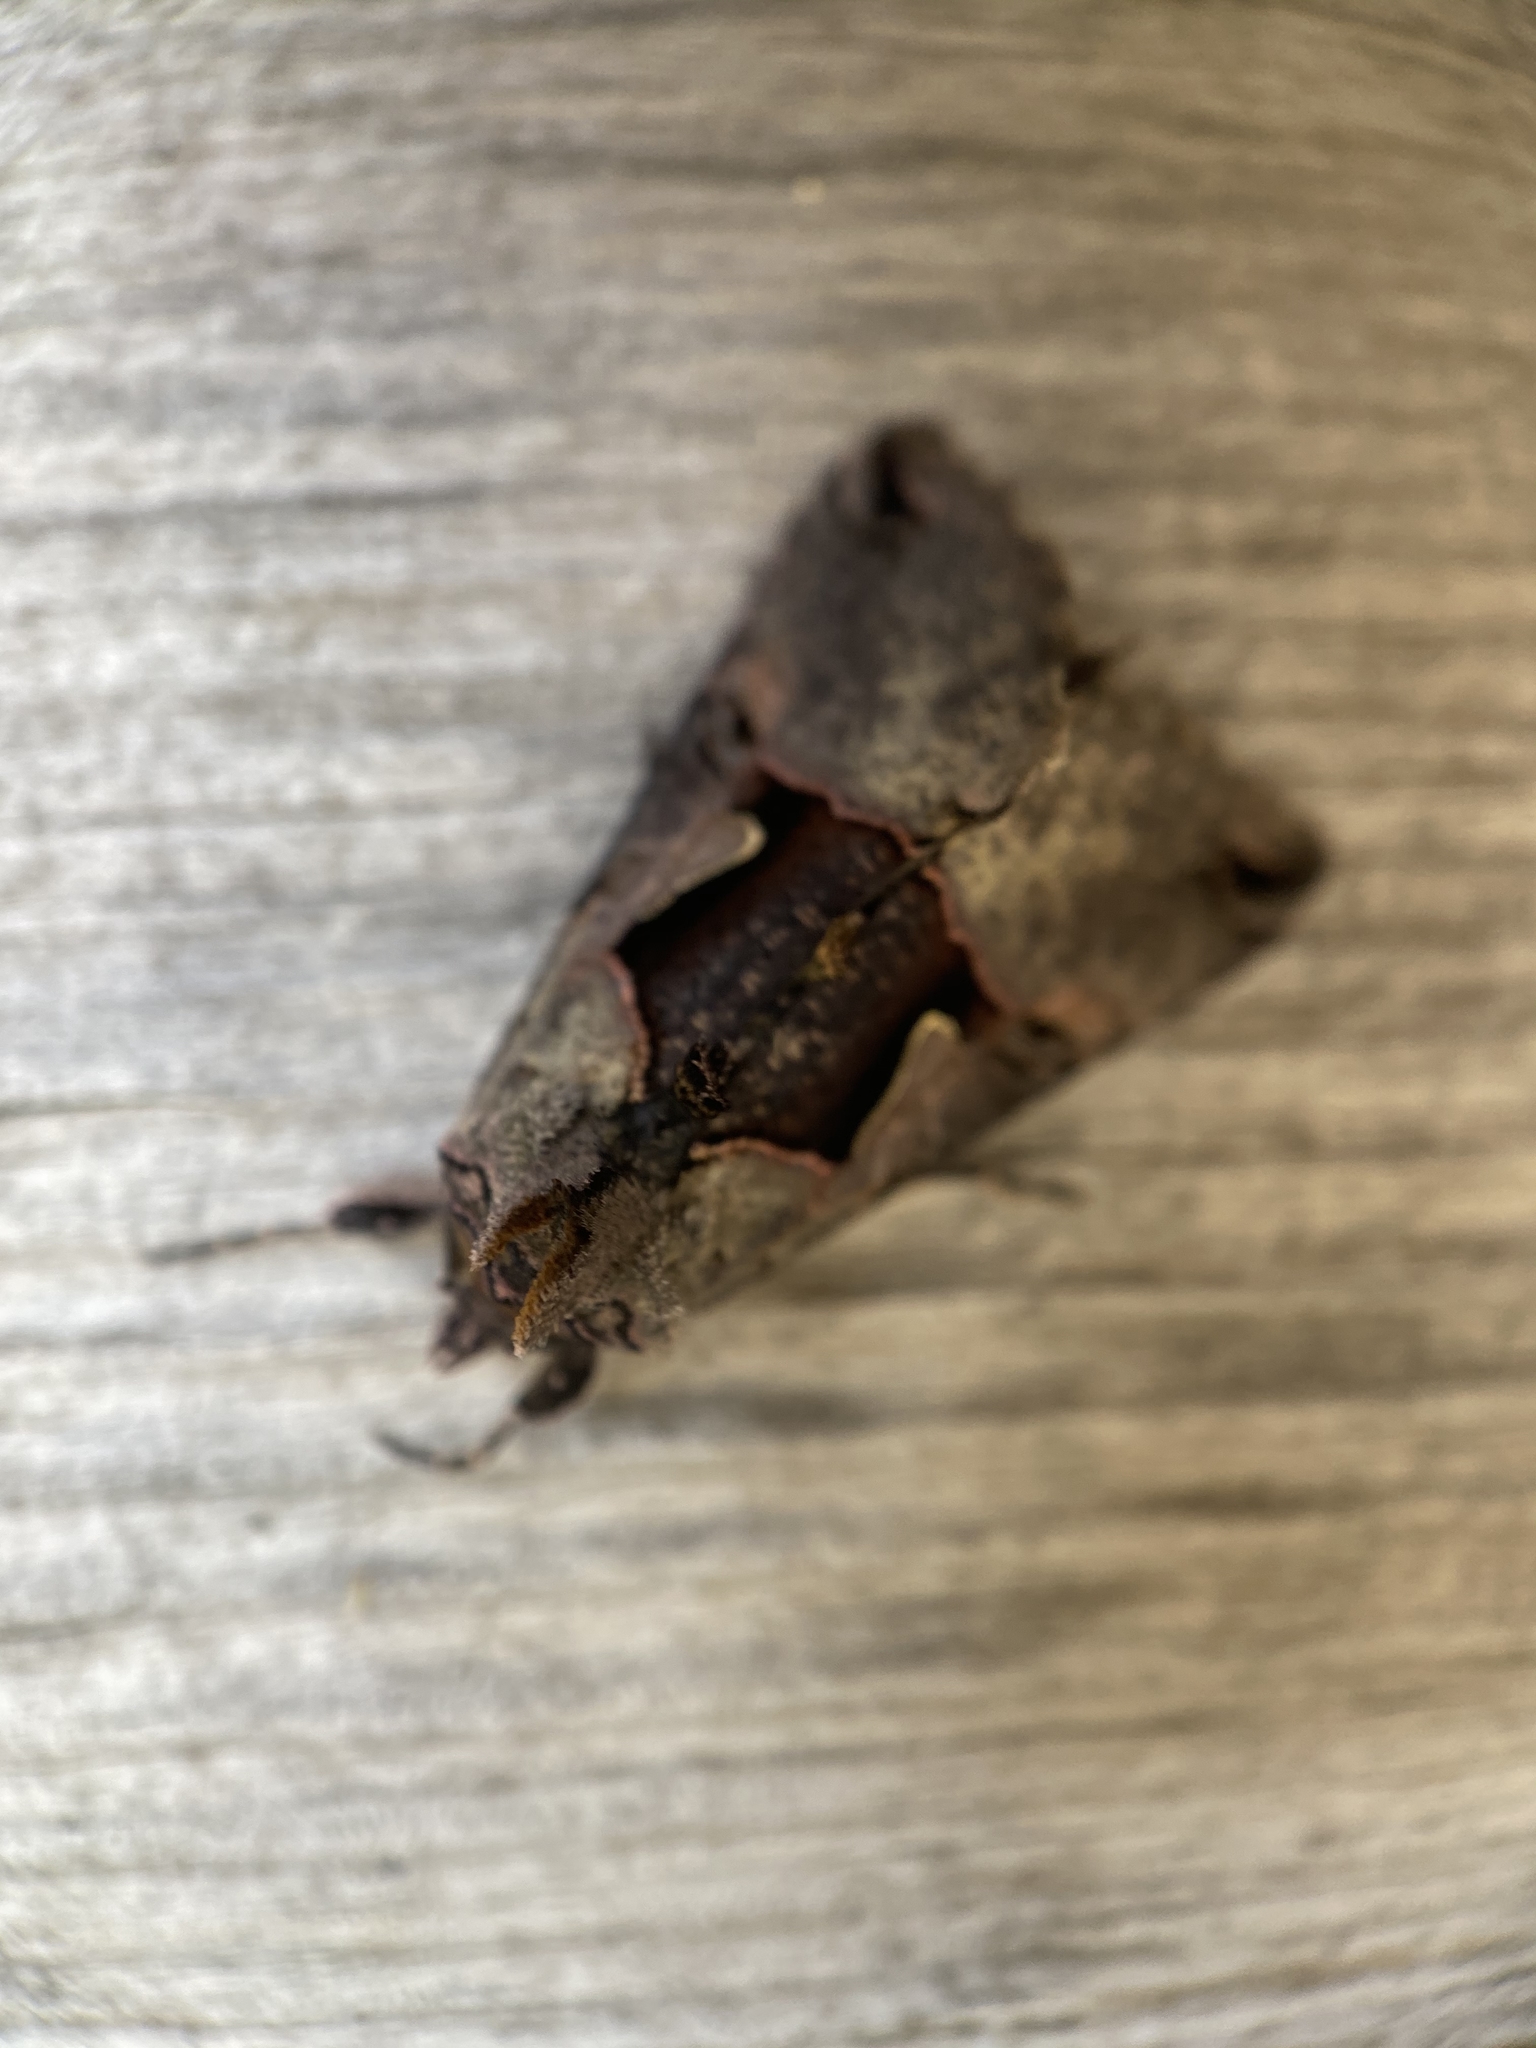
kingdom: Animalia
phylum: Arthropoda
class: Insecta
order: Lepidoptera
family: Noctuidae
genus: Autographa
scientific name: Autographa ampla
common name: Large looper moth
